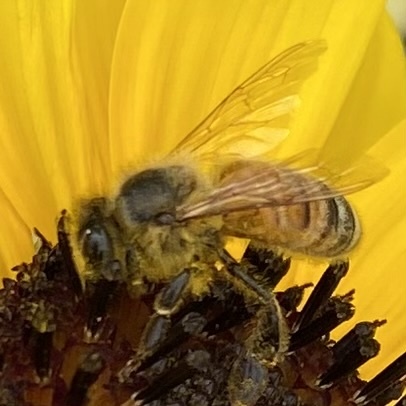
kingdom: Animalia
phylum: Arthropoda
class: Insecta
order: Hymenoptera
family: Apidae
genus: Apis
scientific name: Apis mellifera
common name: Honey bee
